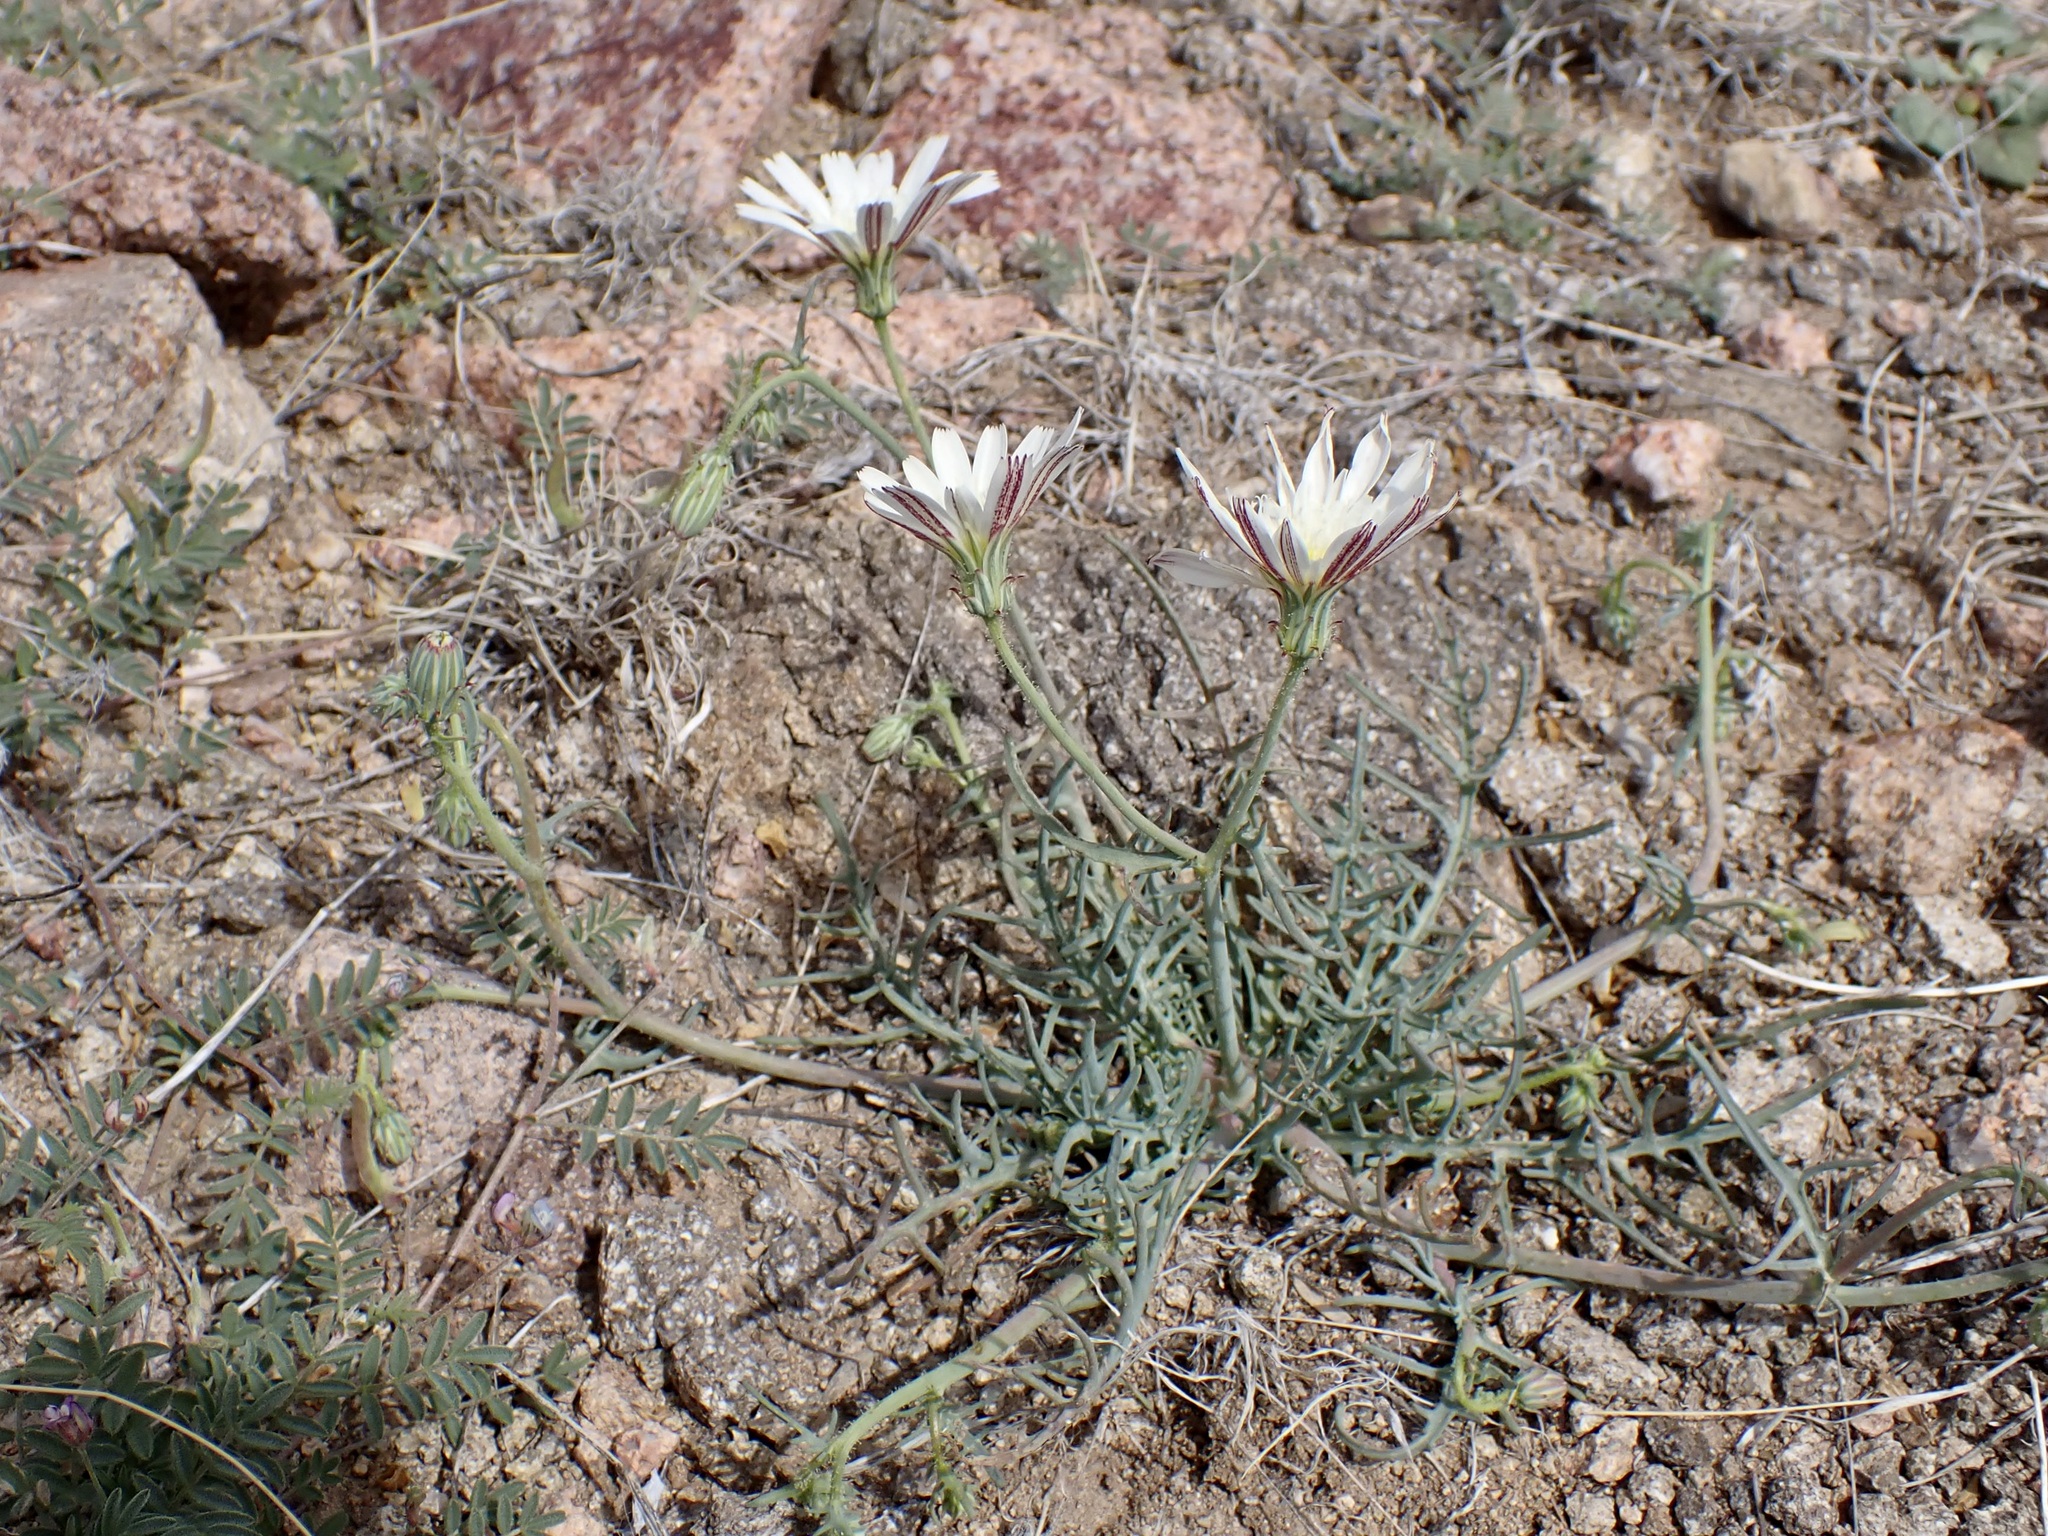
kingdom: Plantae
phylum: Tracheophyta
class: Magnoliopsida
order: Asterales
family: Asteraceae
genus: Calycoseris
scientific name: Calycoseris wrightii
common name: White tackstem
